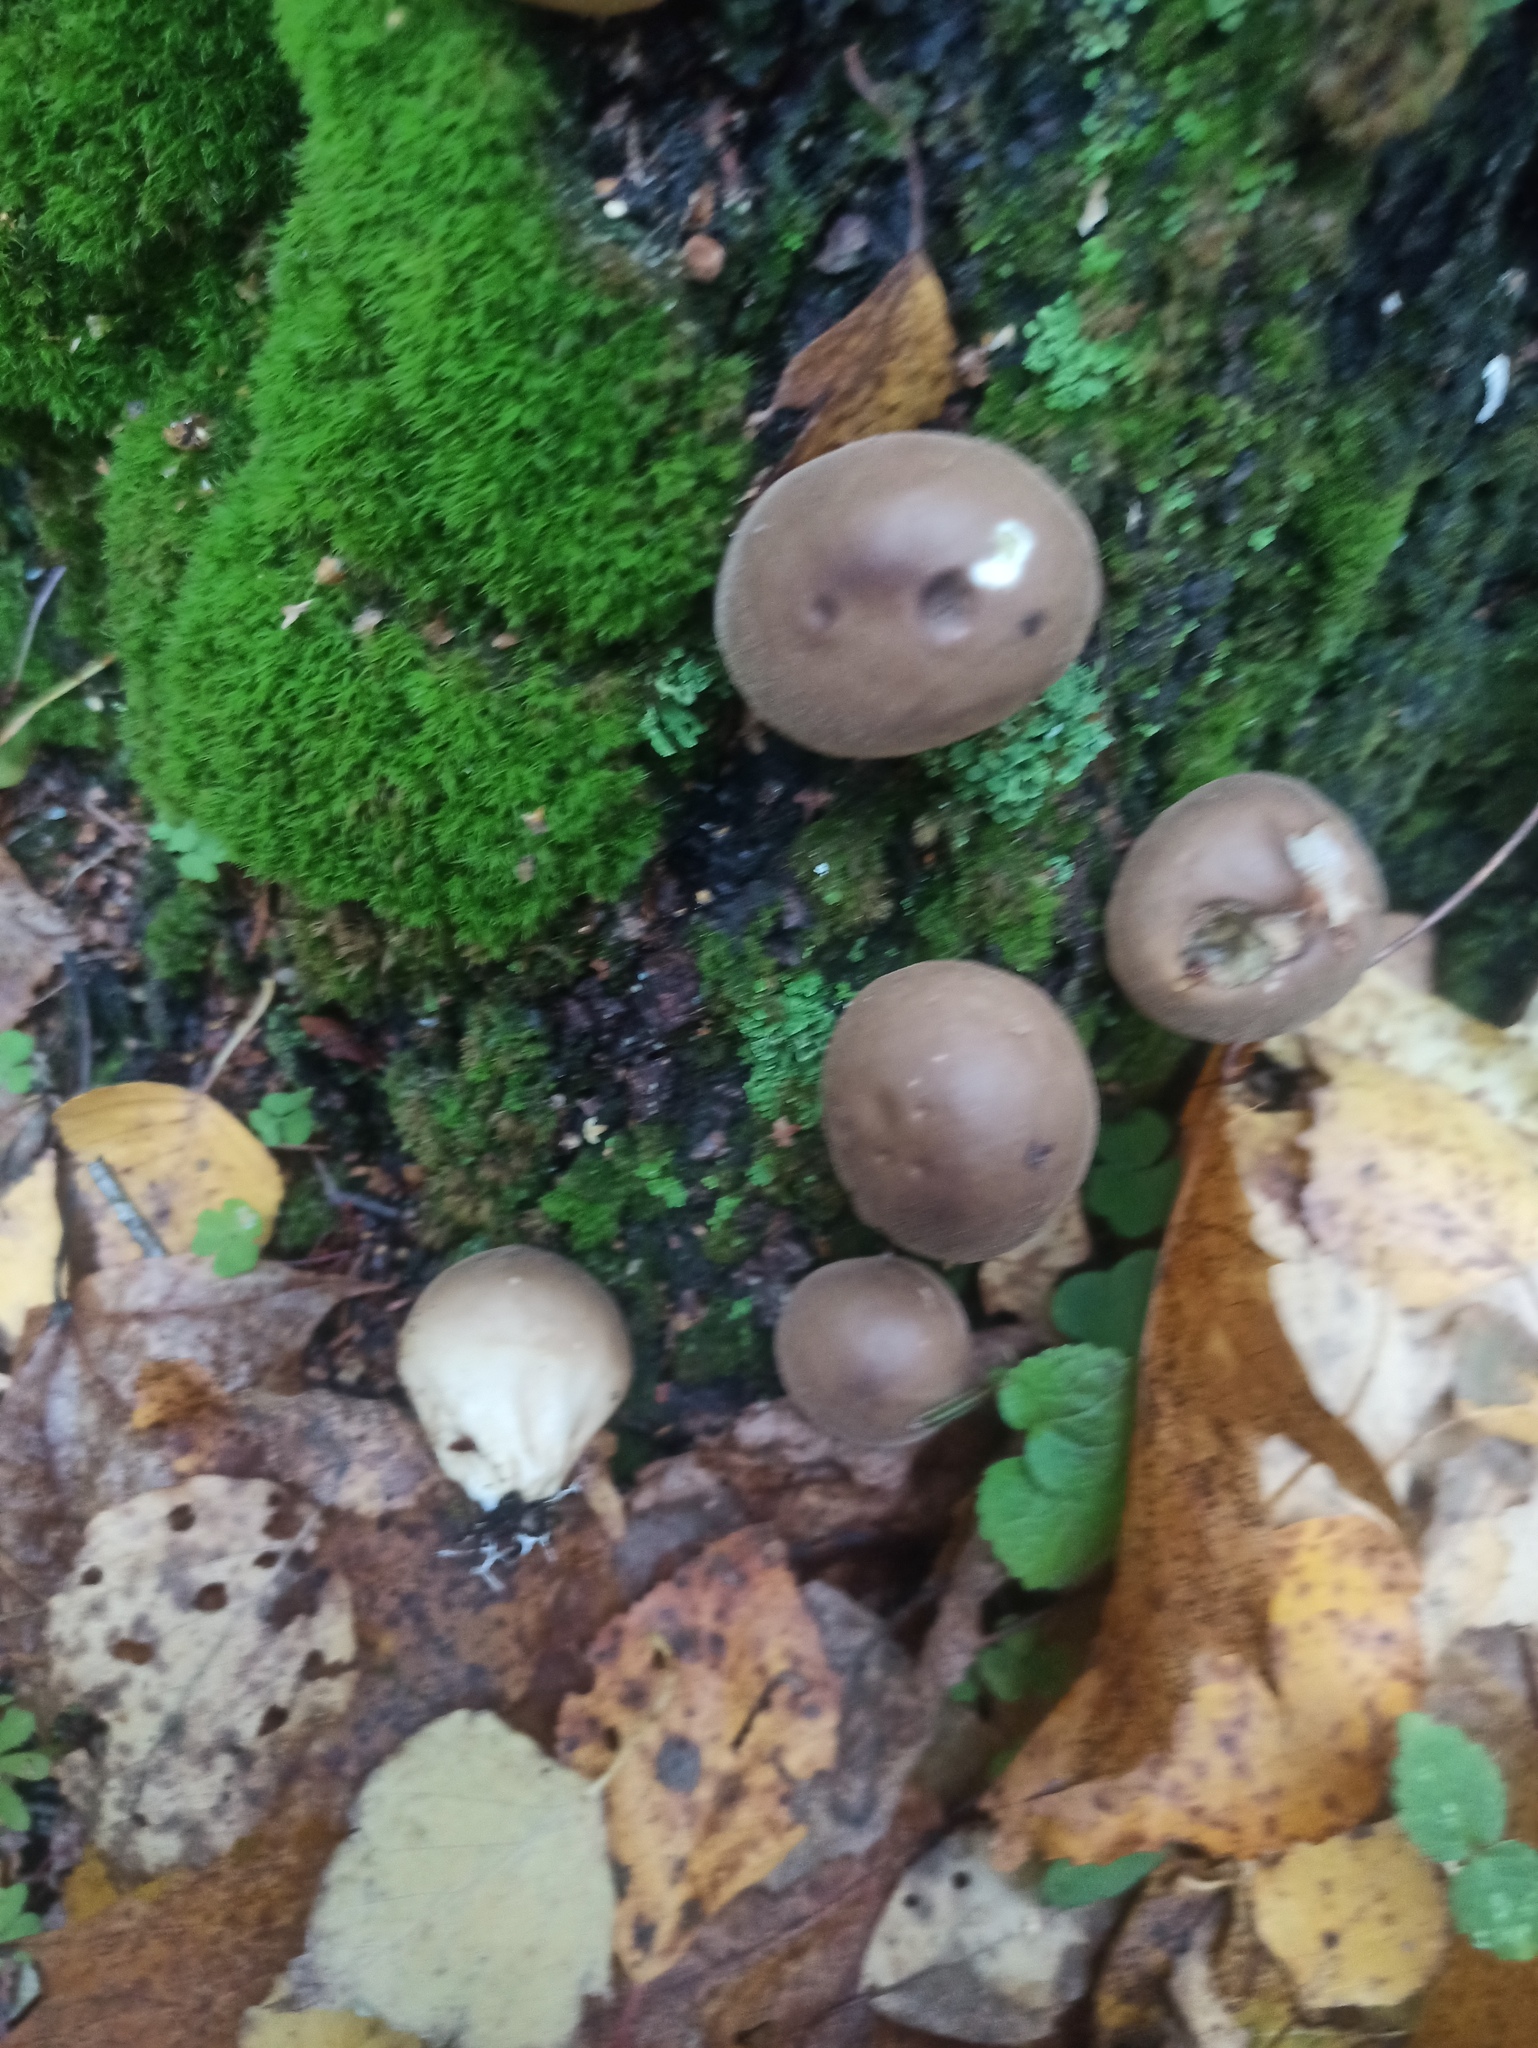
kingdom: Fungi
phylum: Basidiomycota
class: Agaricomycetes
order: Agaricales
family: Lycoperdaceae
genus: Apioperdon
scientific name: Apioperdon pyriforme
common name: Pear-shaped puffball
